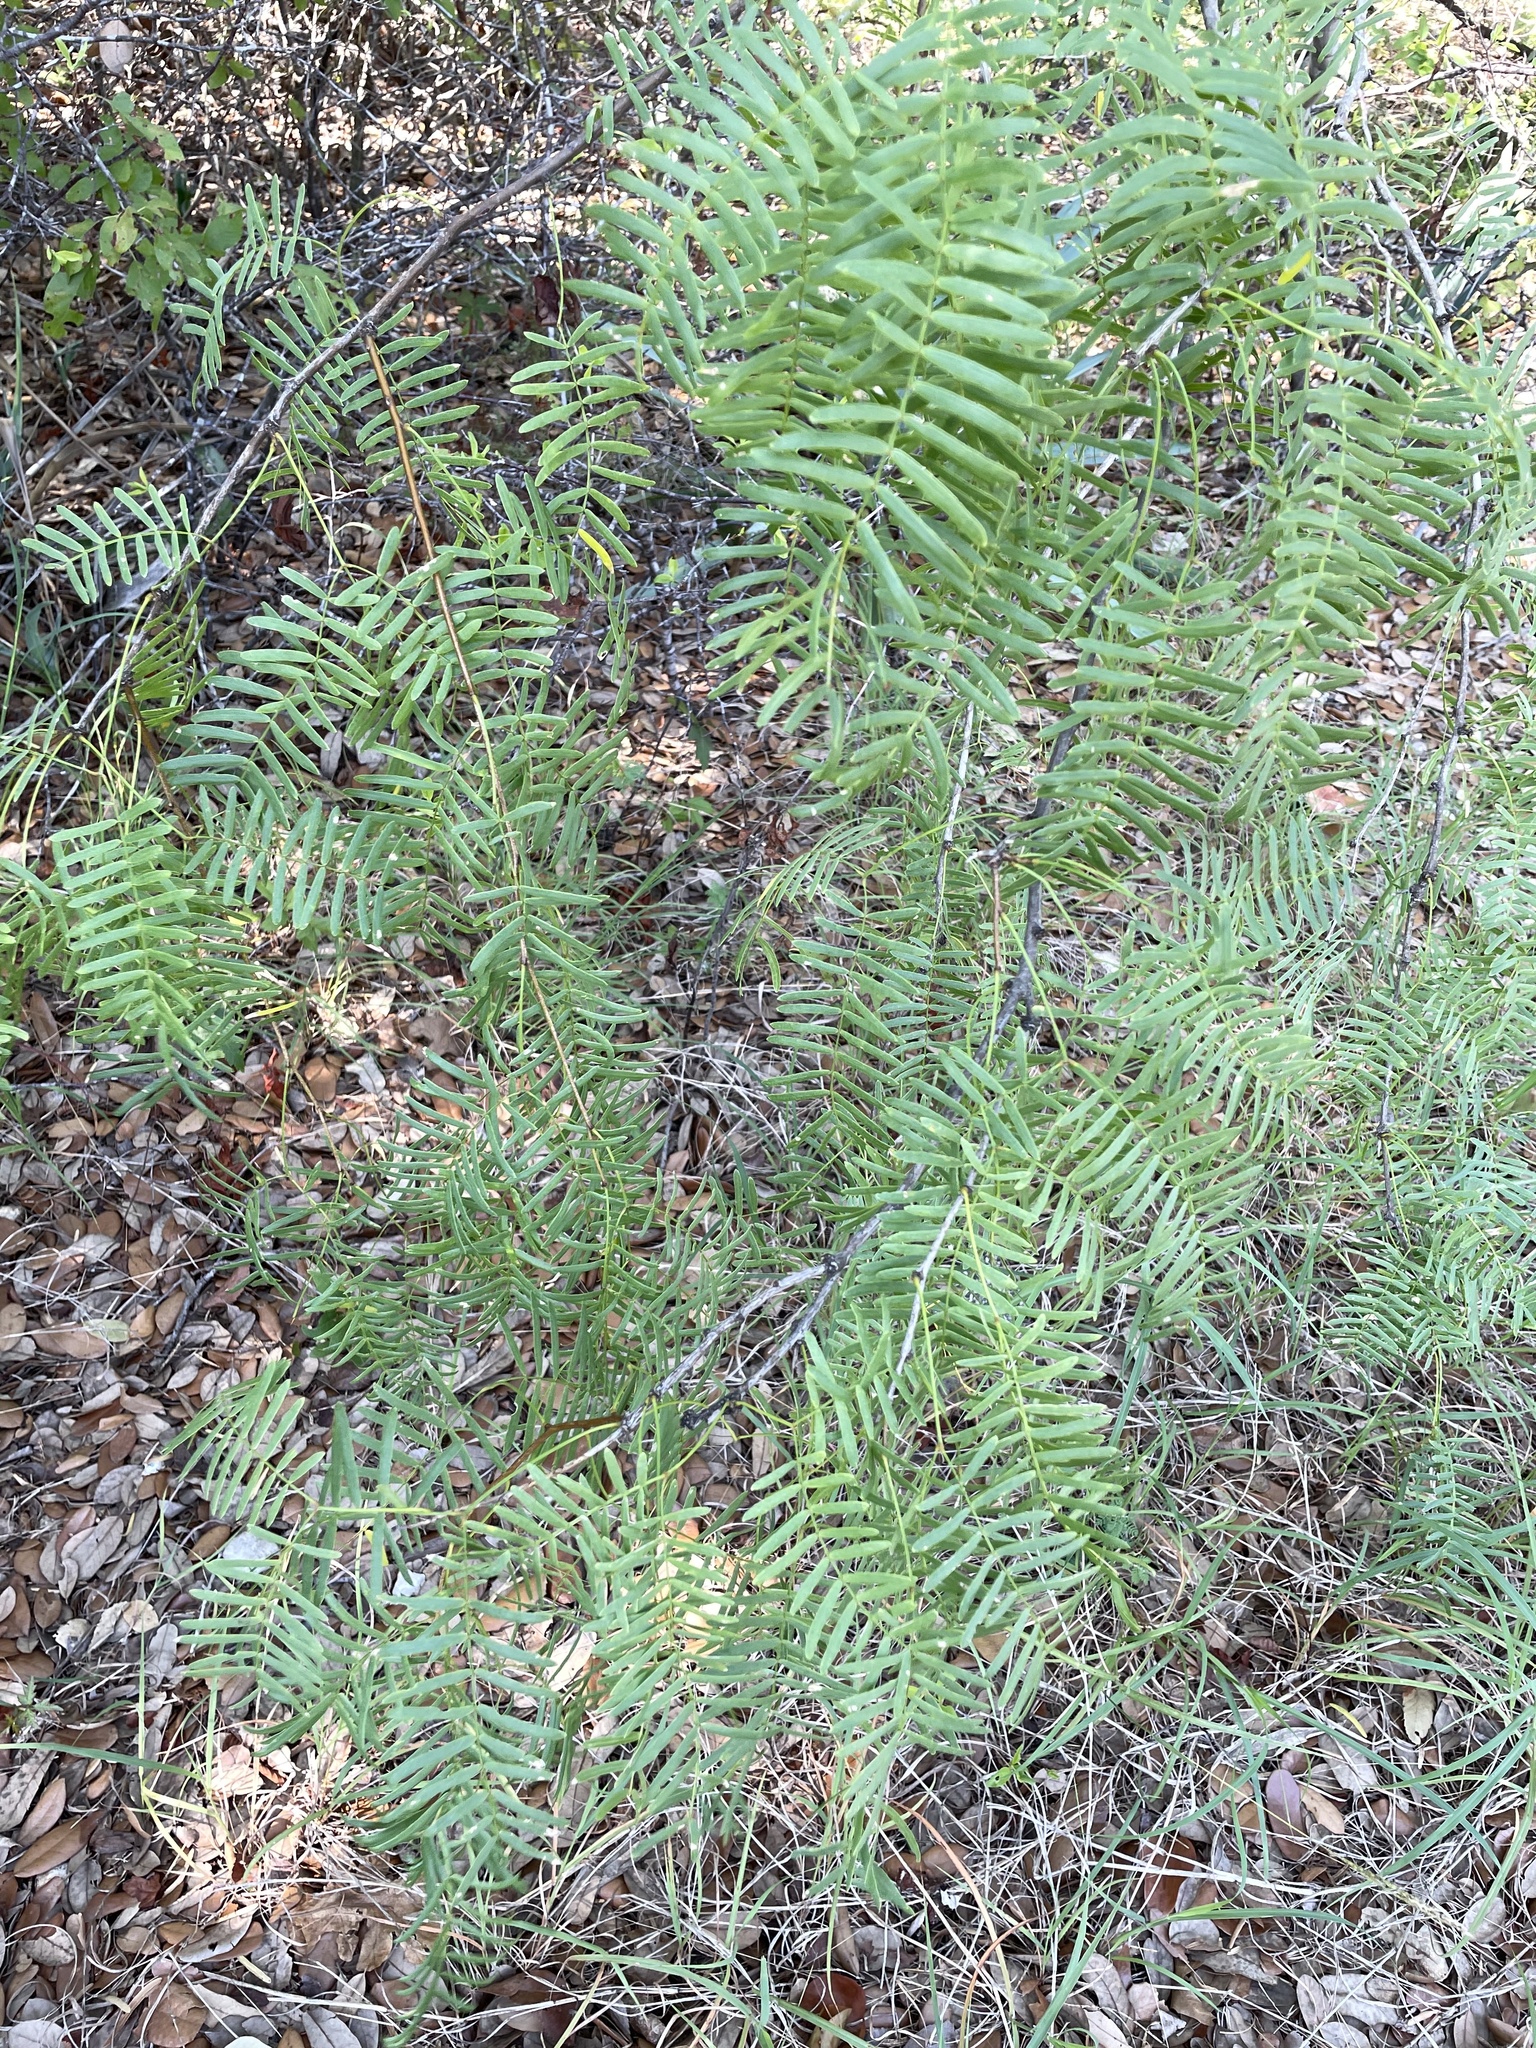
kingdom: Plantae
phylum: Tracheophyta
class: Magnoliopsida
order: Fabales
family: Fabaceae
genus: Prosopis
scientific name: Prosopis glandulosa
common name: Honey mesquite
